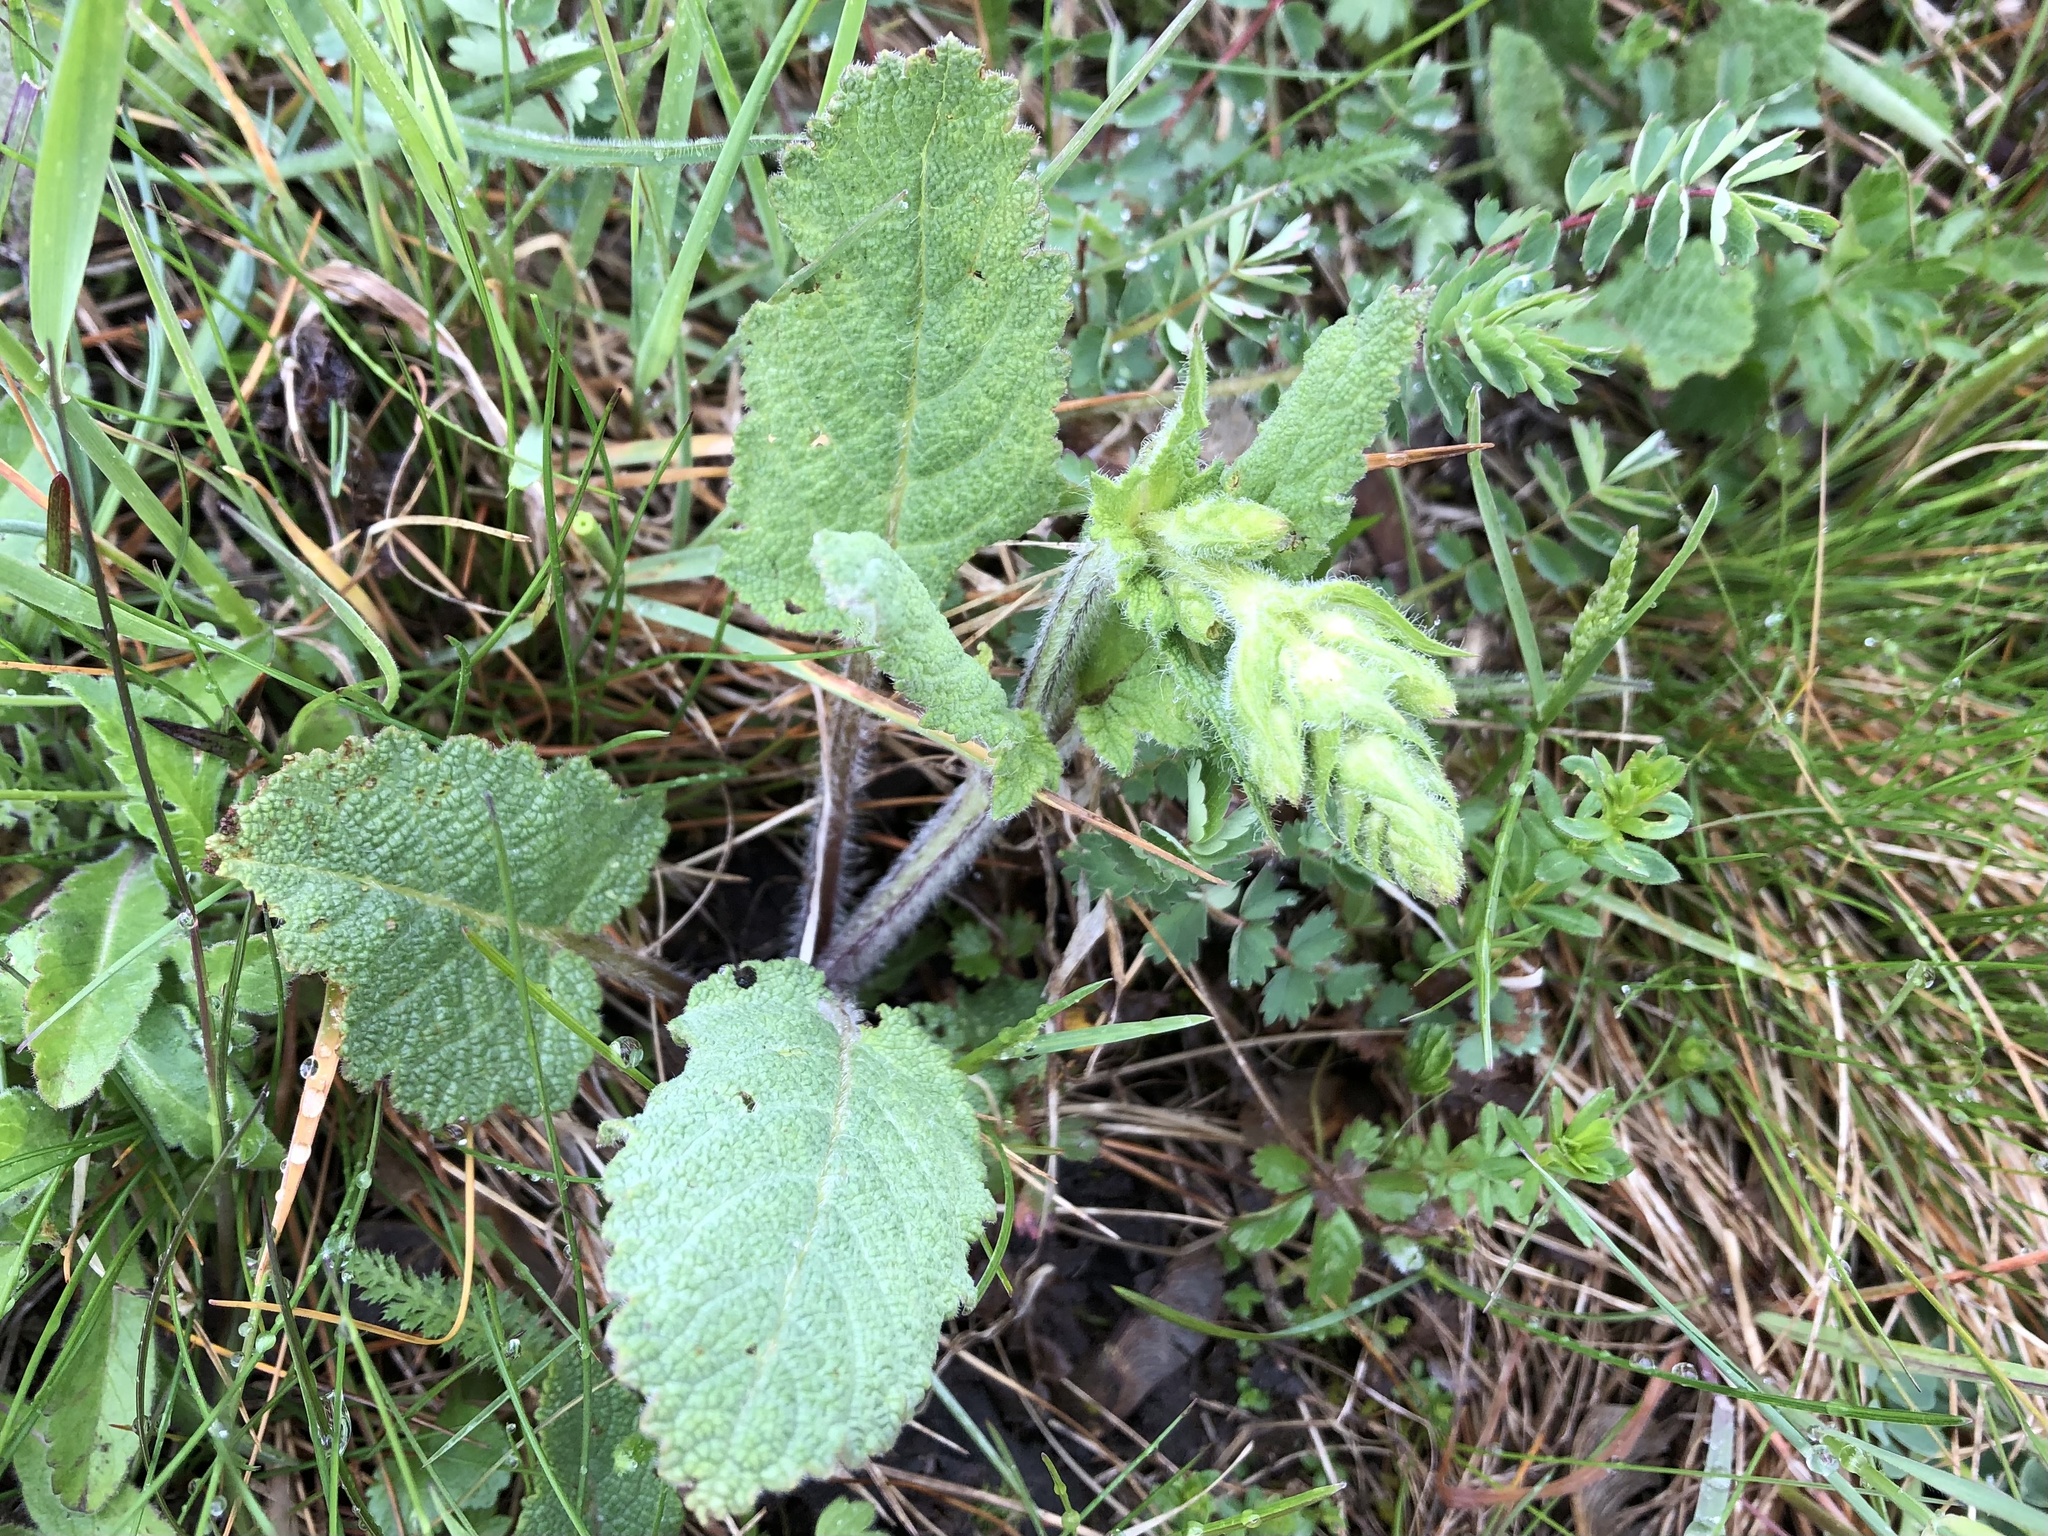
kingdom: Plantae
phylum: Tracheophyta
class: Magnoliopsida
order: Lamiales
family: Lamiaceae
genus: Salvia
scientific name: Salvia pratensis
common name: Meadow sage
